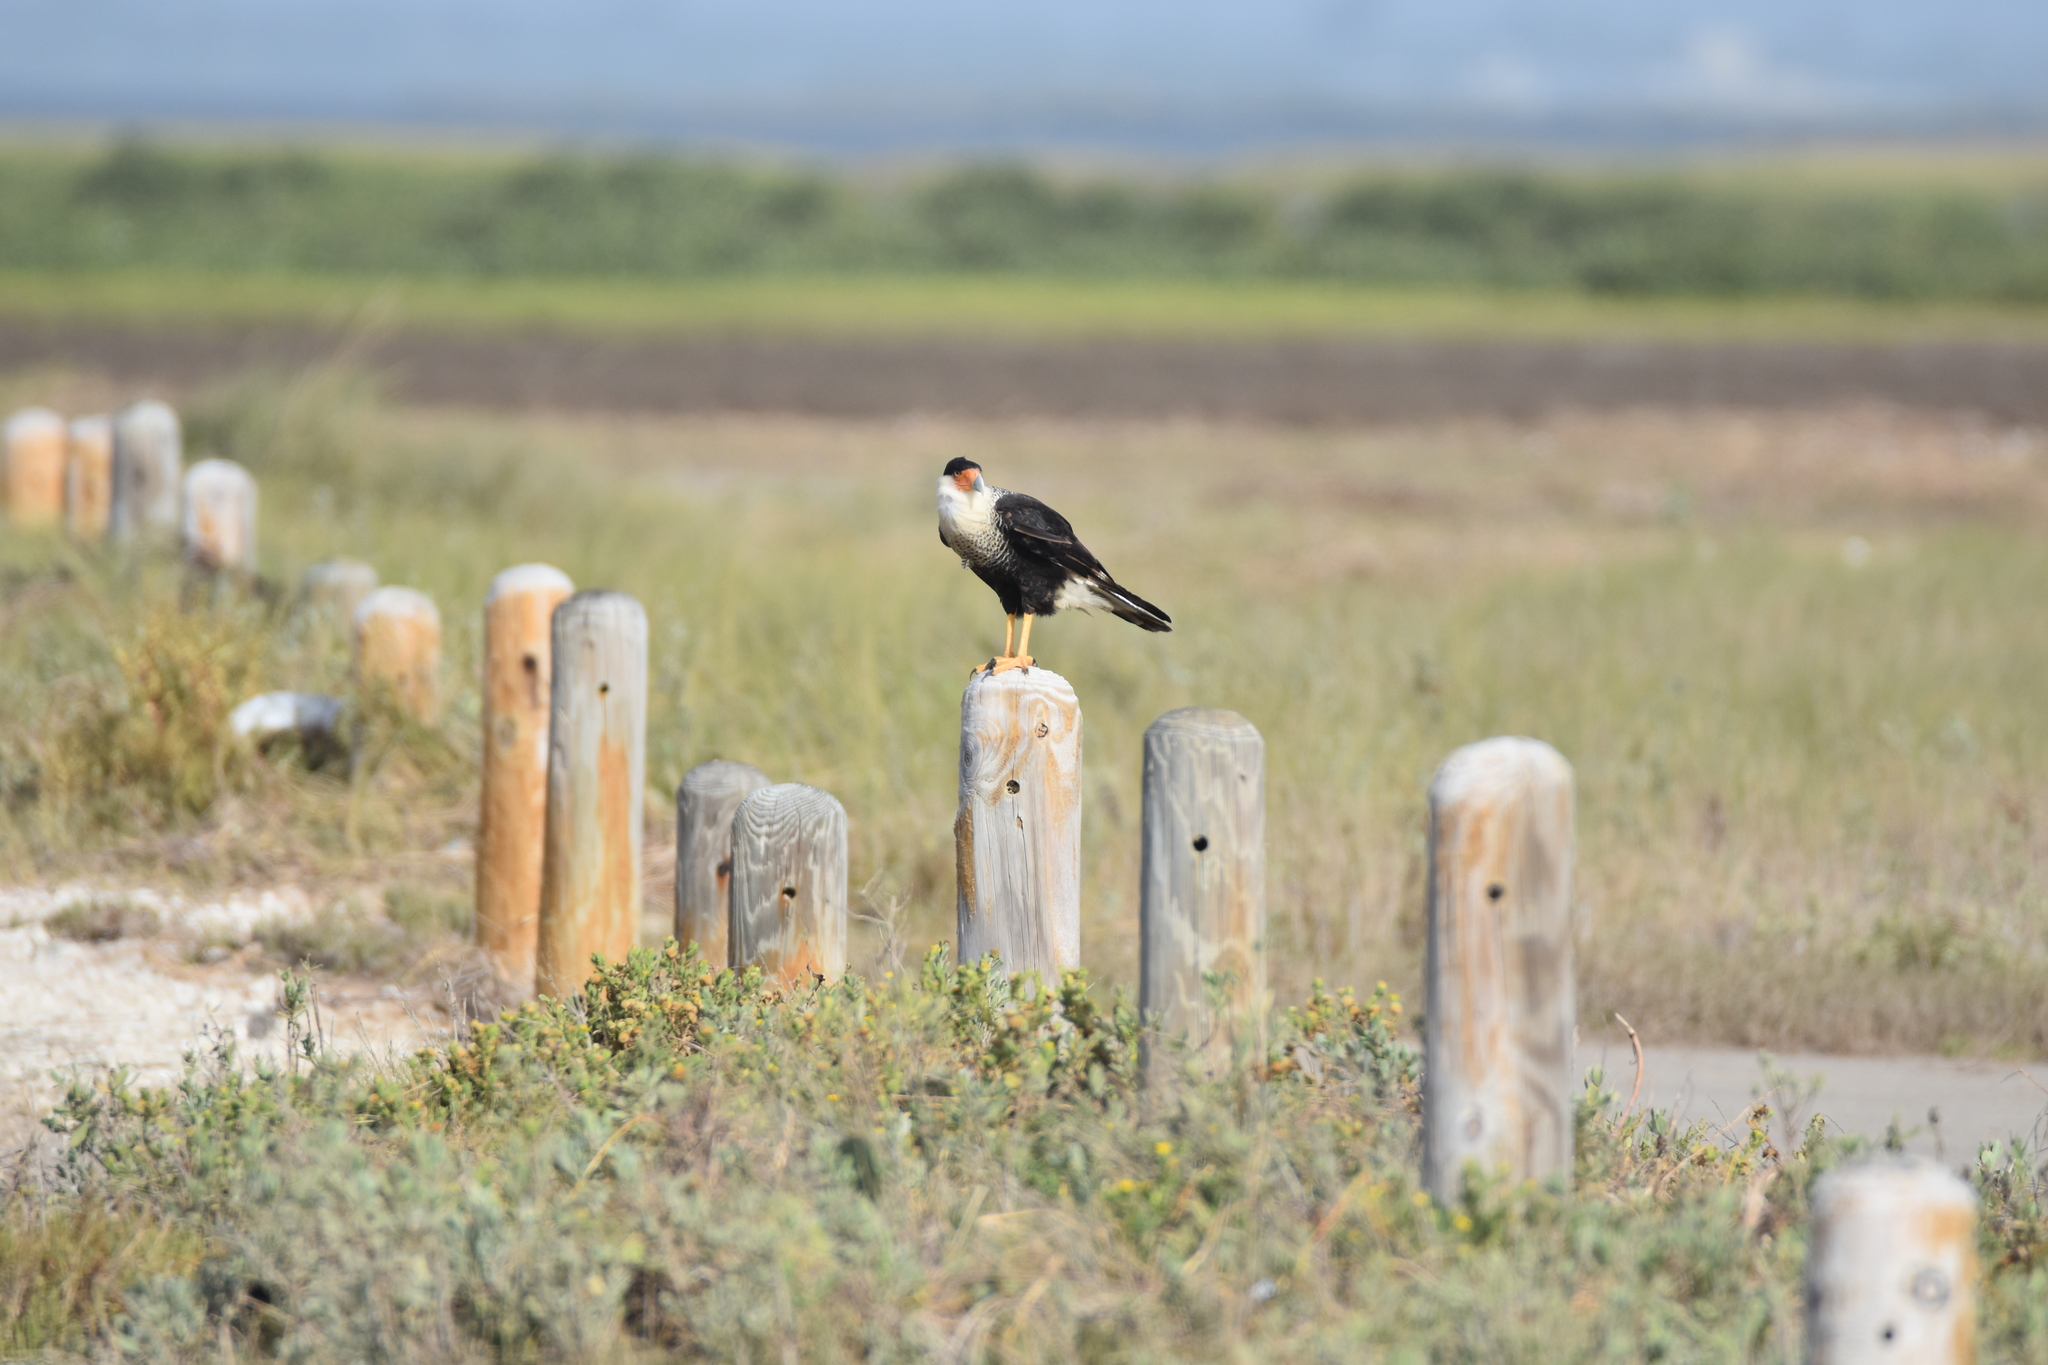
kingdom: Animalia
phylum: Chordata
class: Aves
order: Falconiformes
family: Falconidae
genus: Caracara
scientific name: Caracara plancus
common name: Southern caracara
